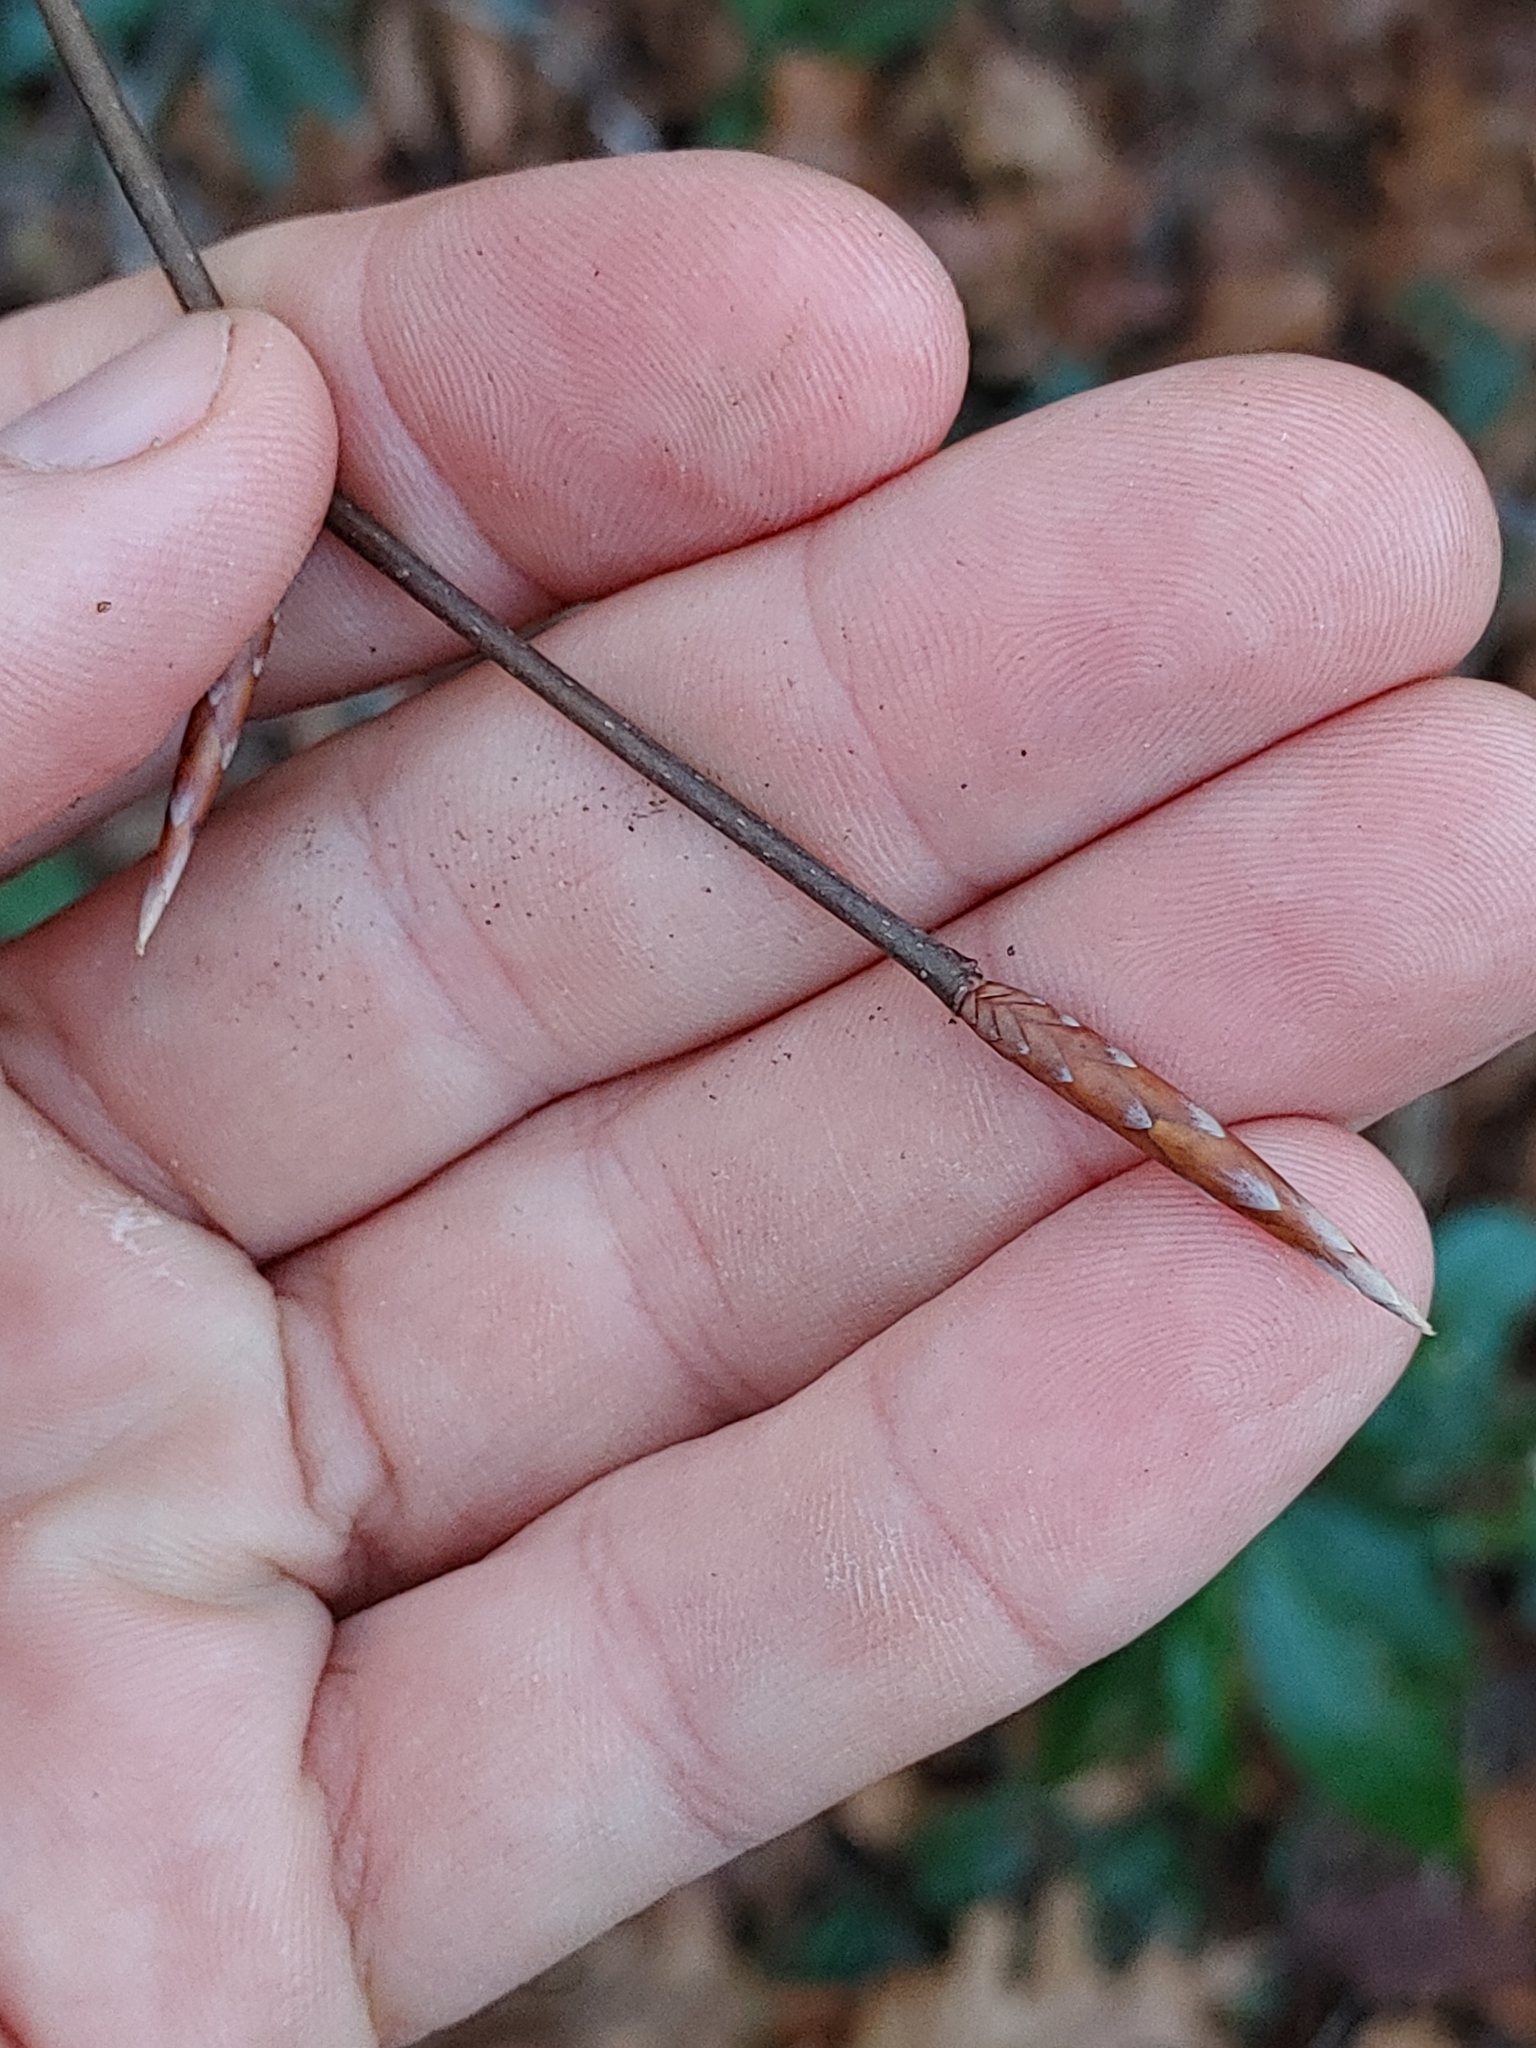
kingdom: Plantae
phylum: Tracheophyta
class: Magnoliopsida
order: Fagales
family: Fagaceae
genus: Fagus
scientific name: Fagus grandifolia
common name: American beech
